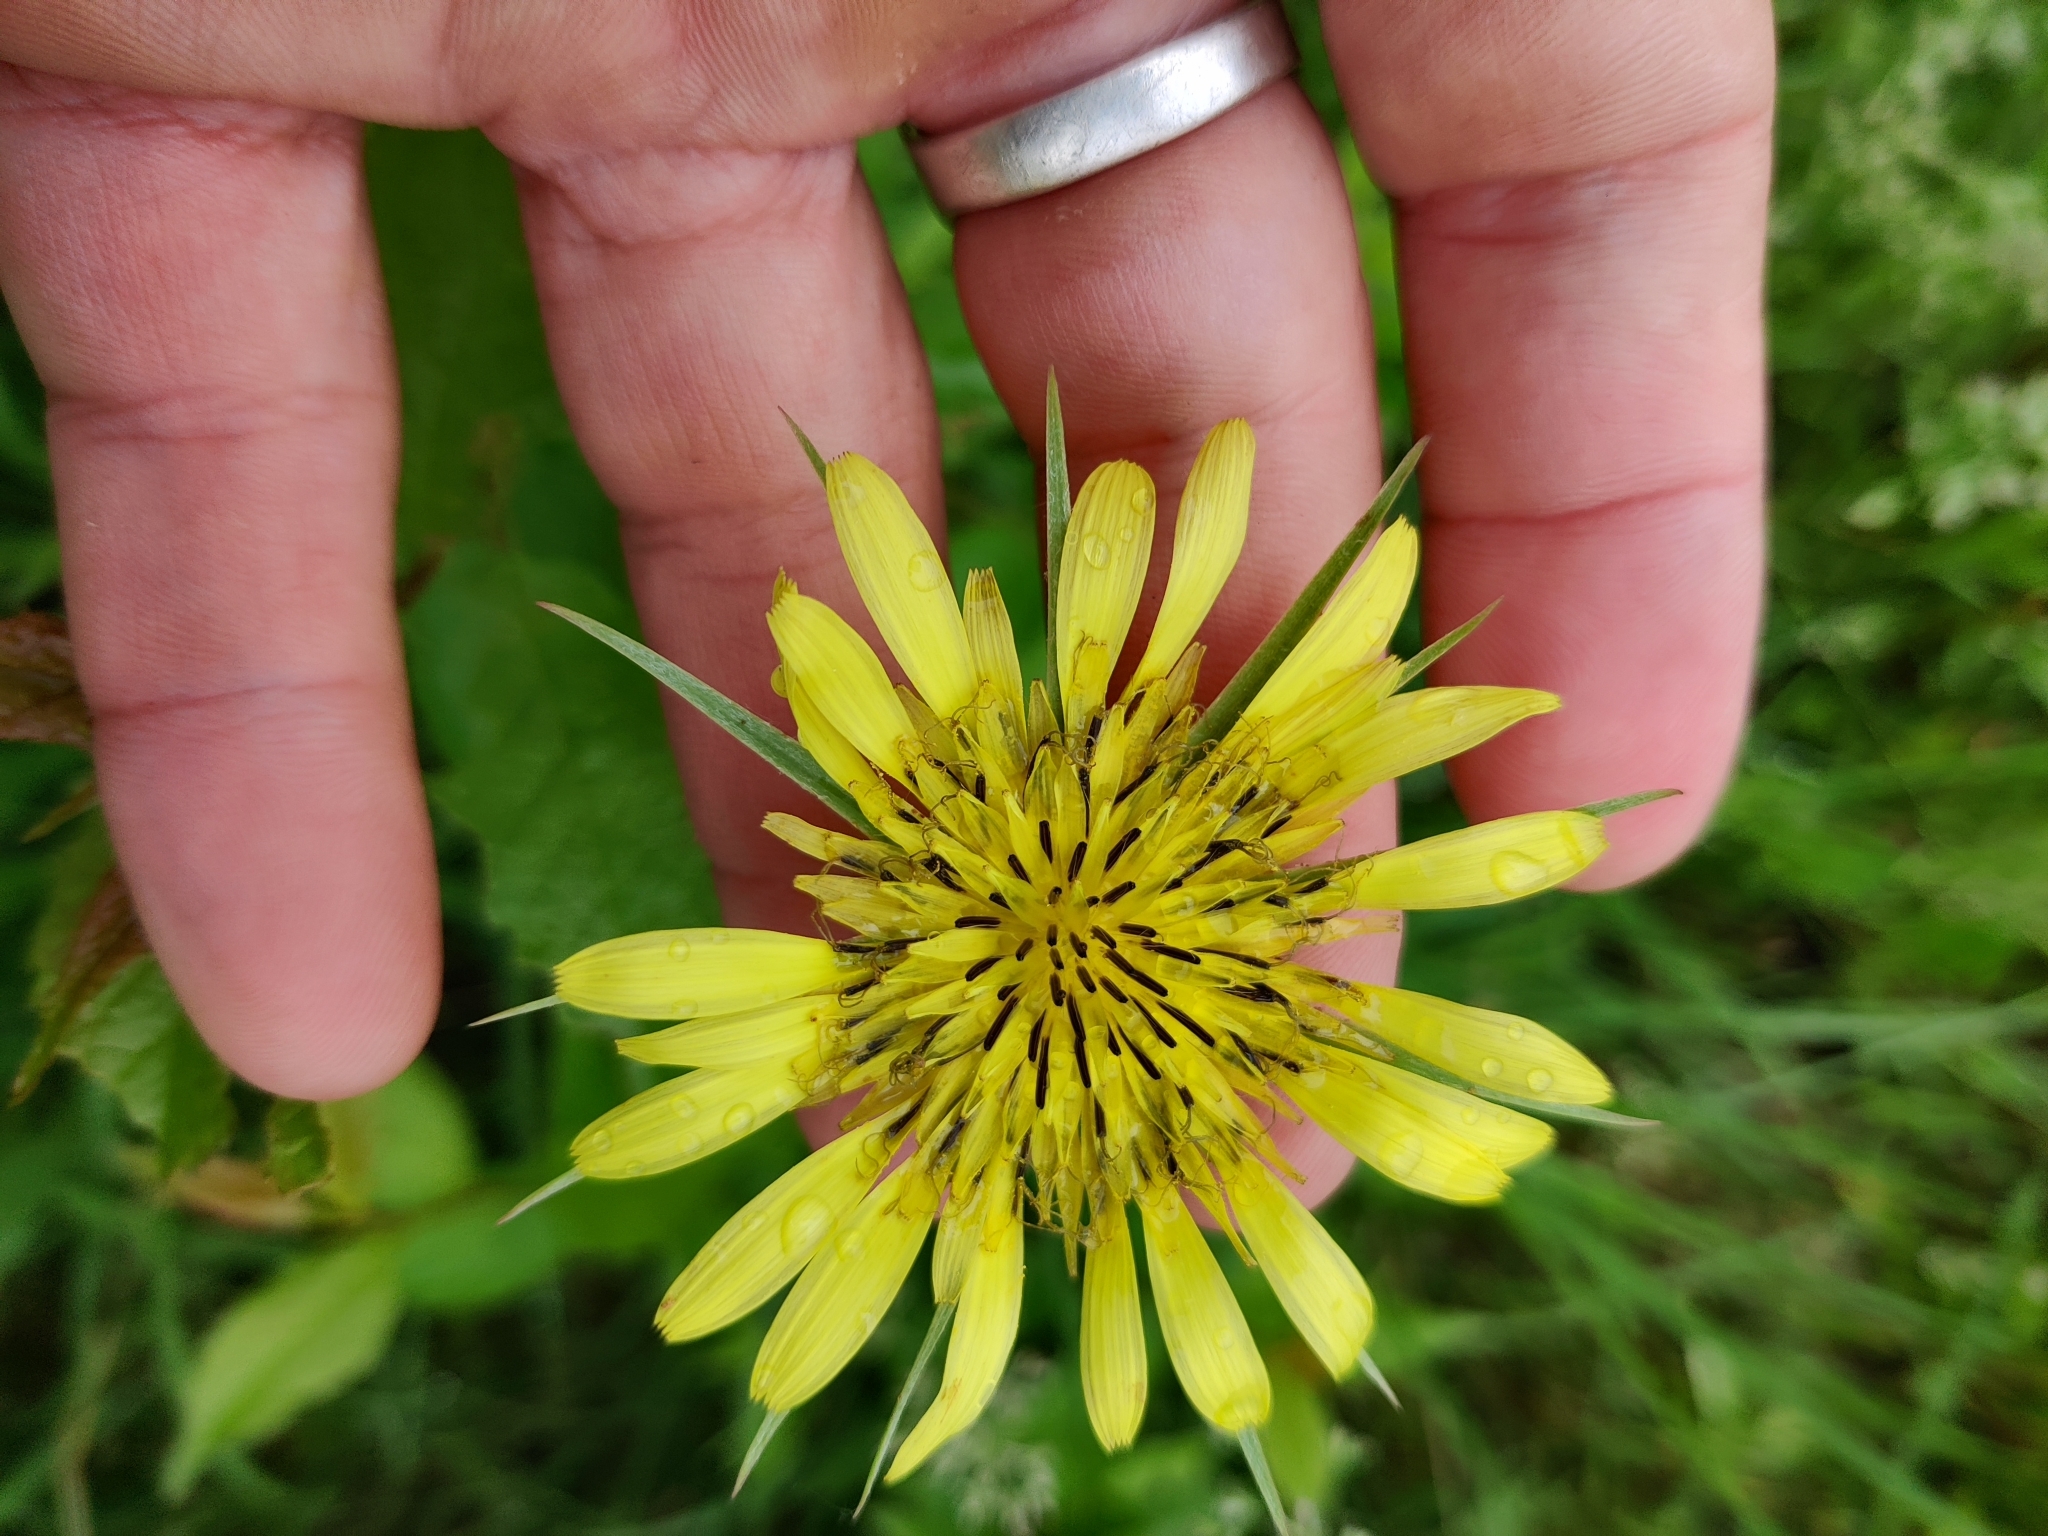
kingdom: Plantae
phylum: Tracheophyta
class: Magnoliopsida
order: Asterales
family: Asteraceae
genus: Tragopogon
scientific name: Tragopogon dubius
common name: Yellow salsify
